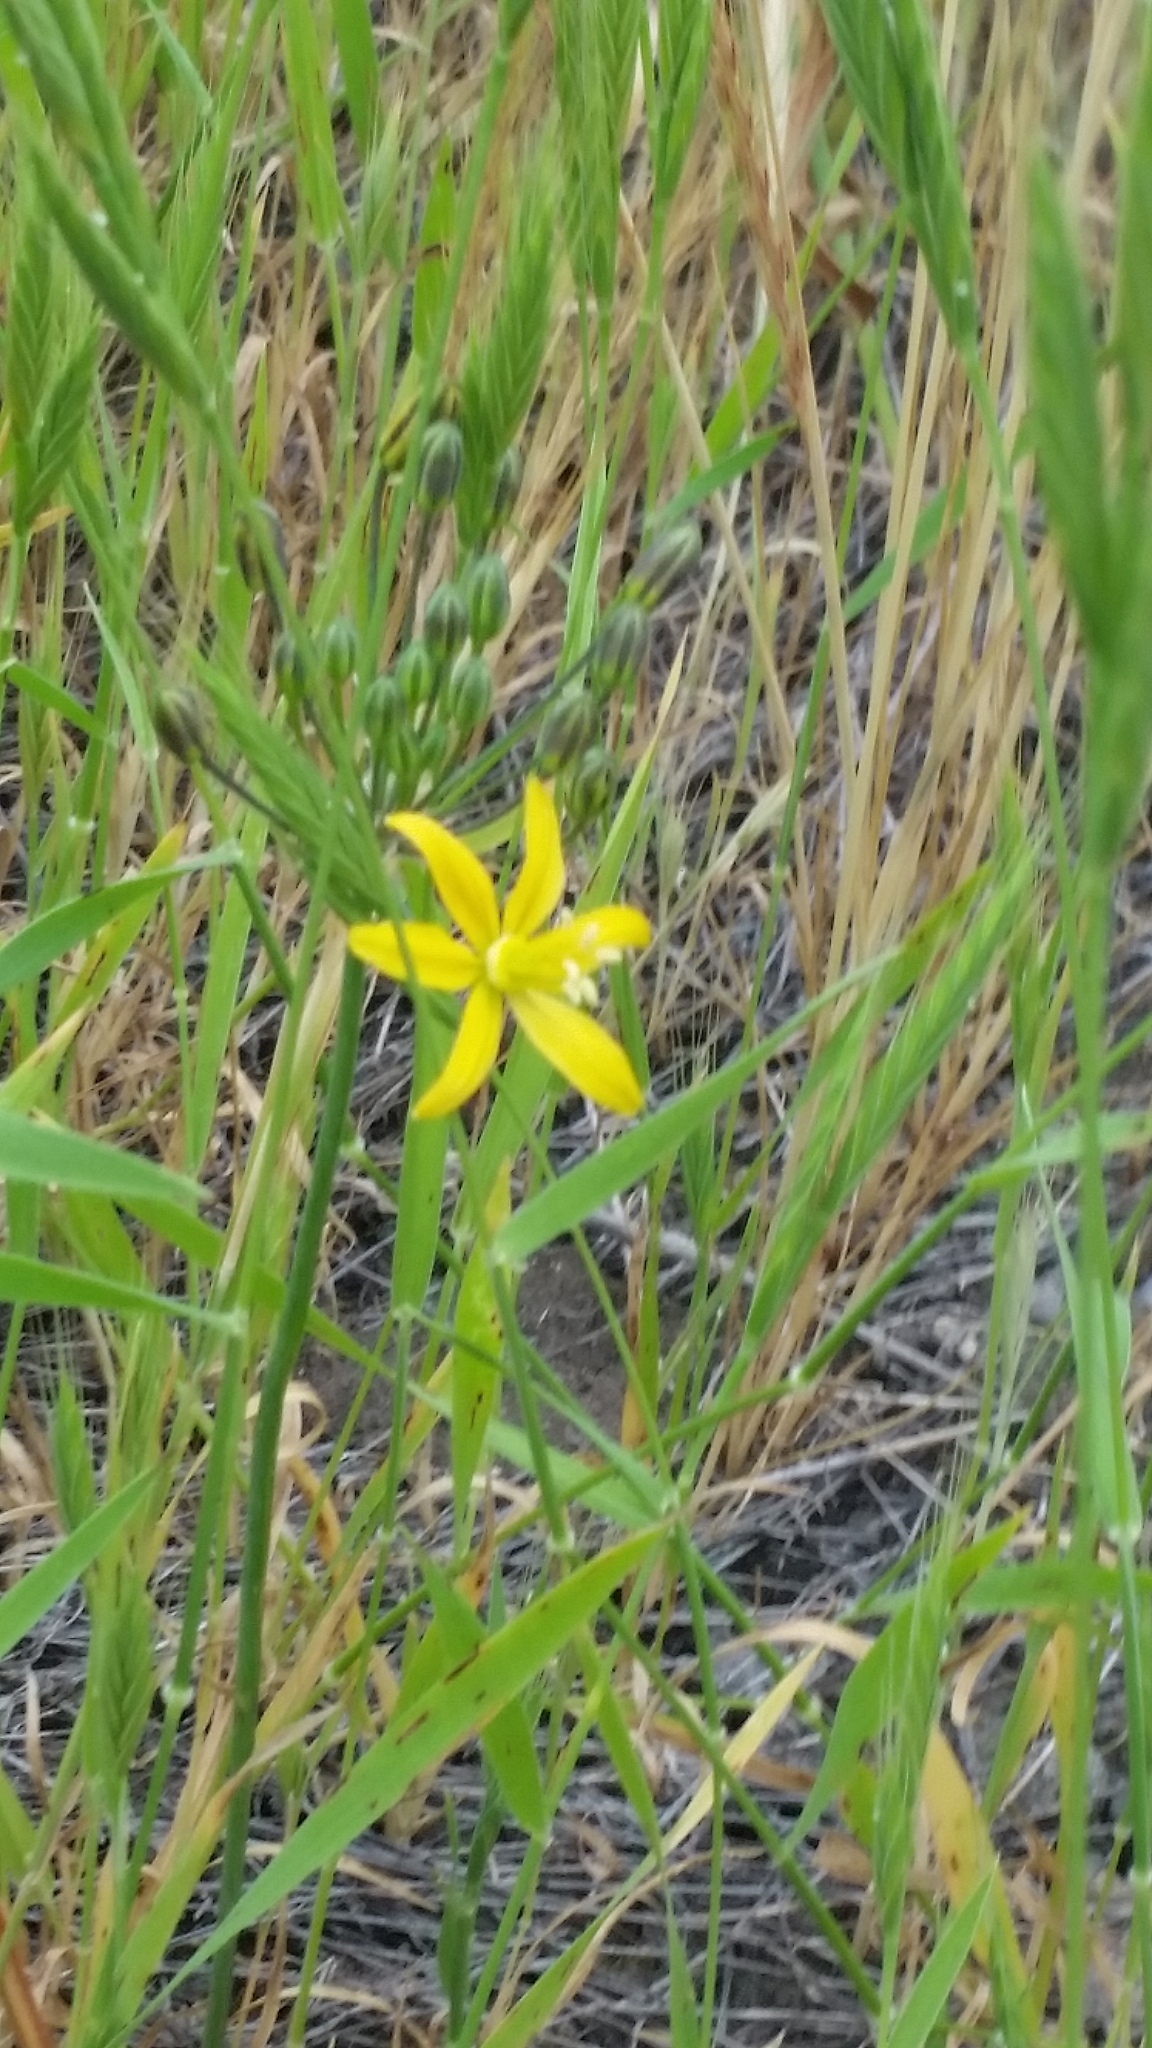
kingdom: Plantae
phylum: Tracheophyta
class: Liliopsida
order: Asparagales
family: Asparagaceae
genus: Bloomeria
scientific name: Bloomeria crocea
